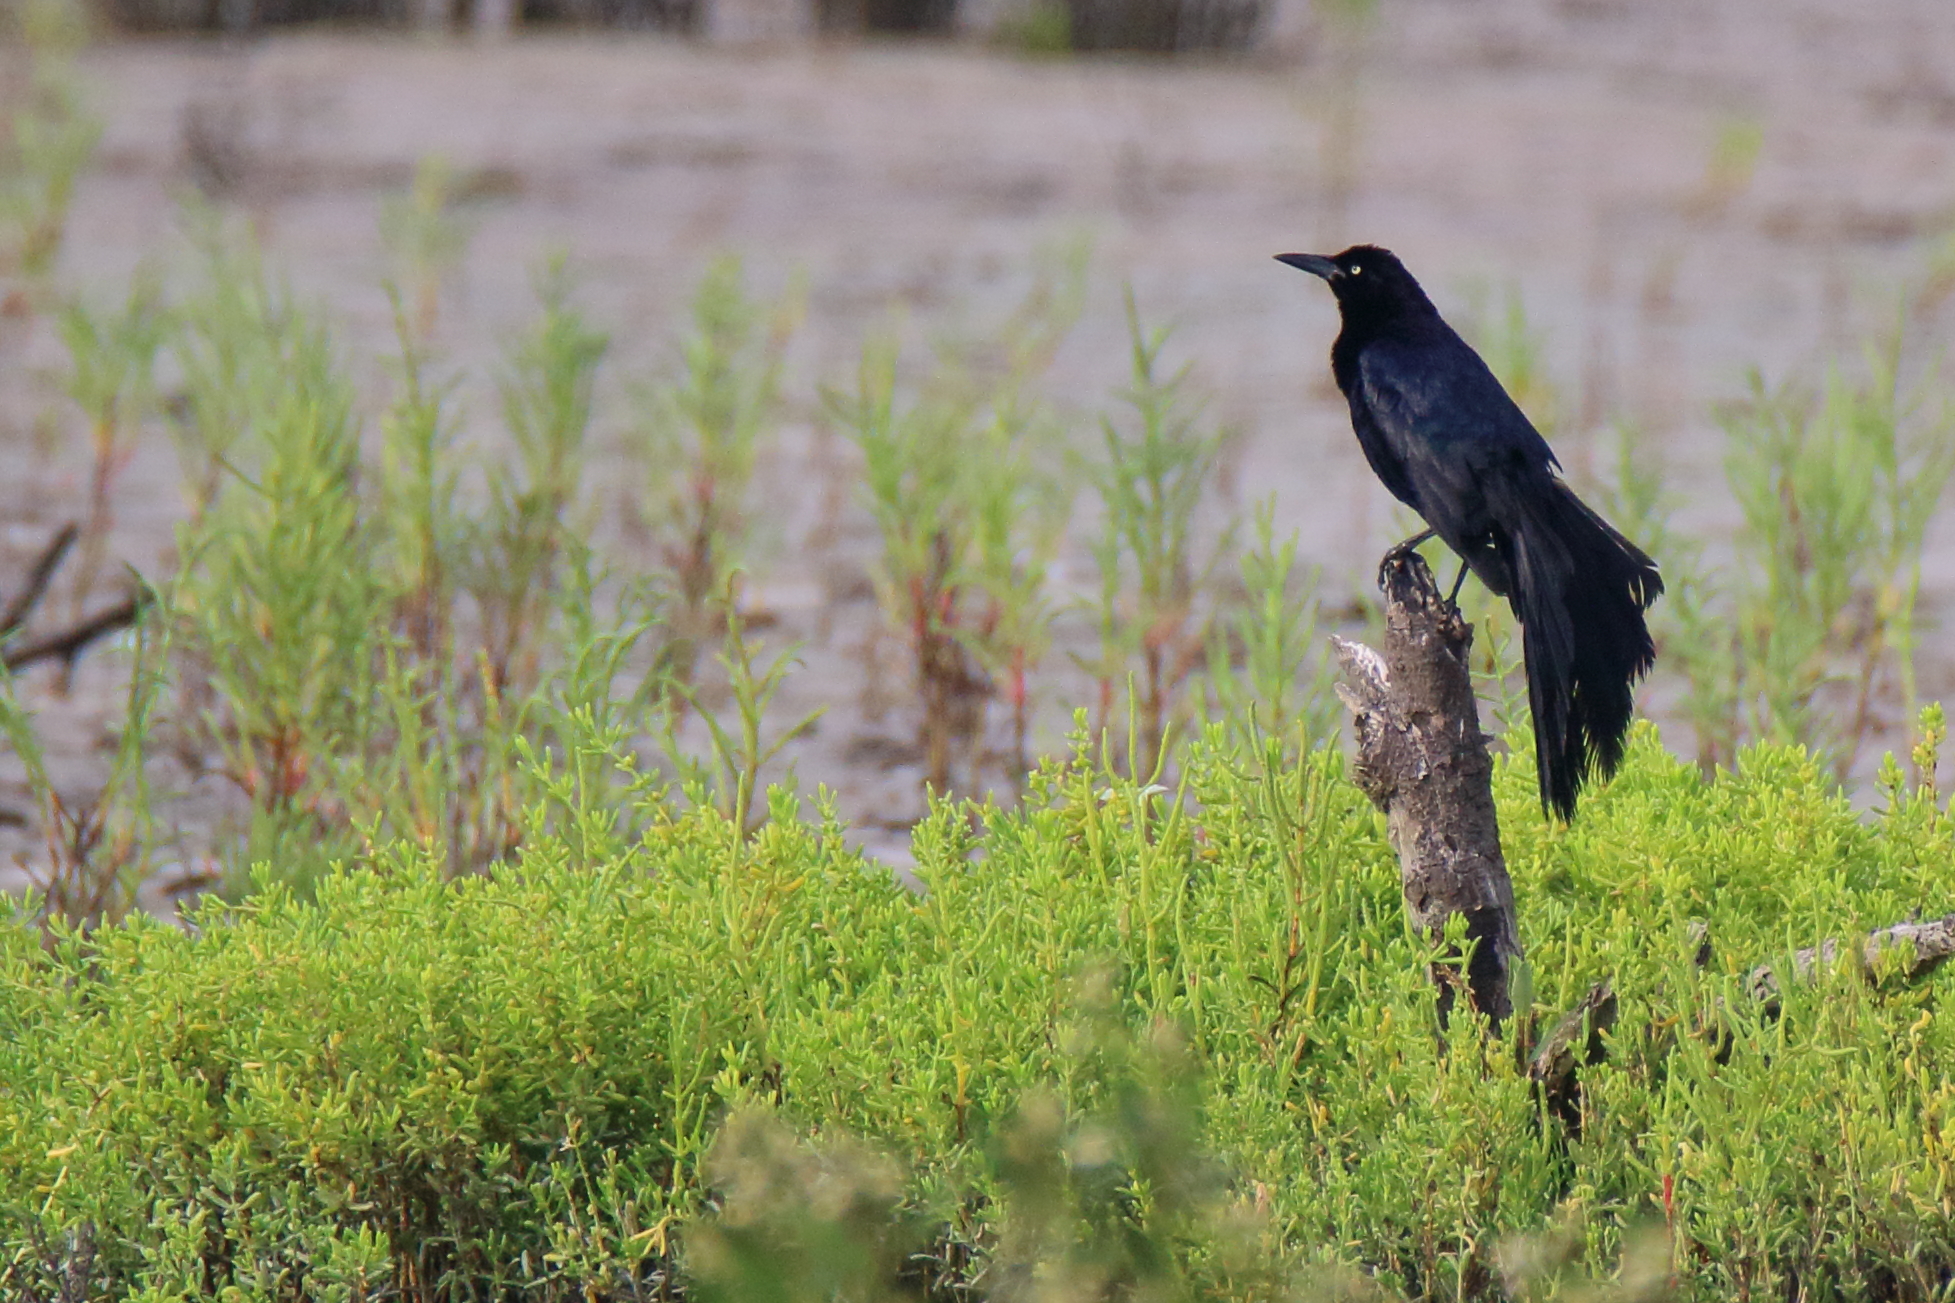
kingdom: Animalia
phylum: Chordata
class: Aves
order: Passeriformes
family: Icteridae
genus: Quiscalus
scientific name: Quiscalus mexicanus
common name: Great-tailed grackle
